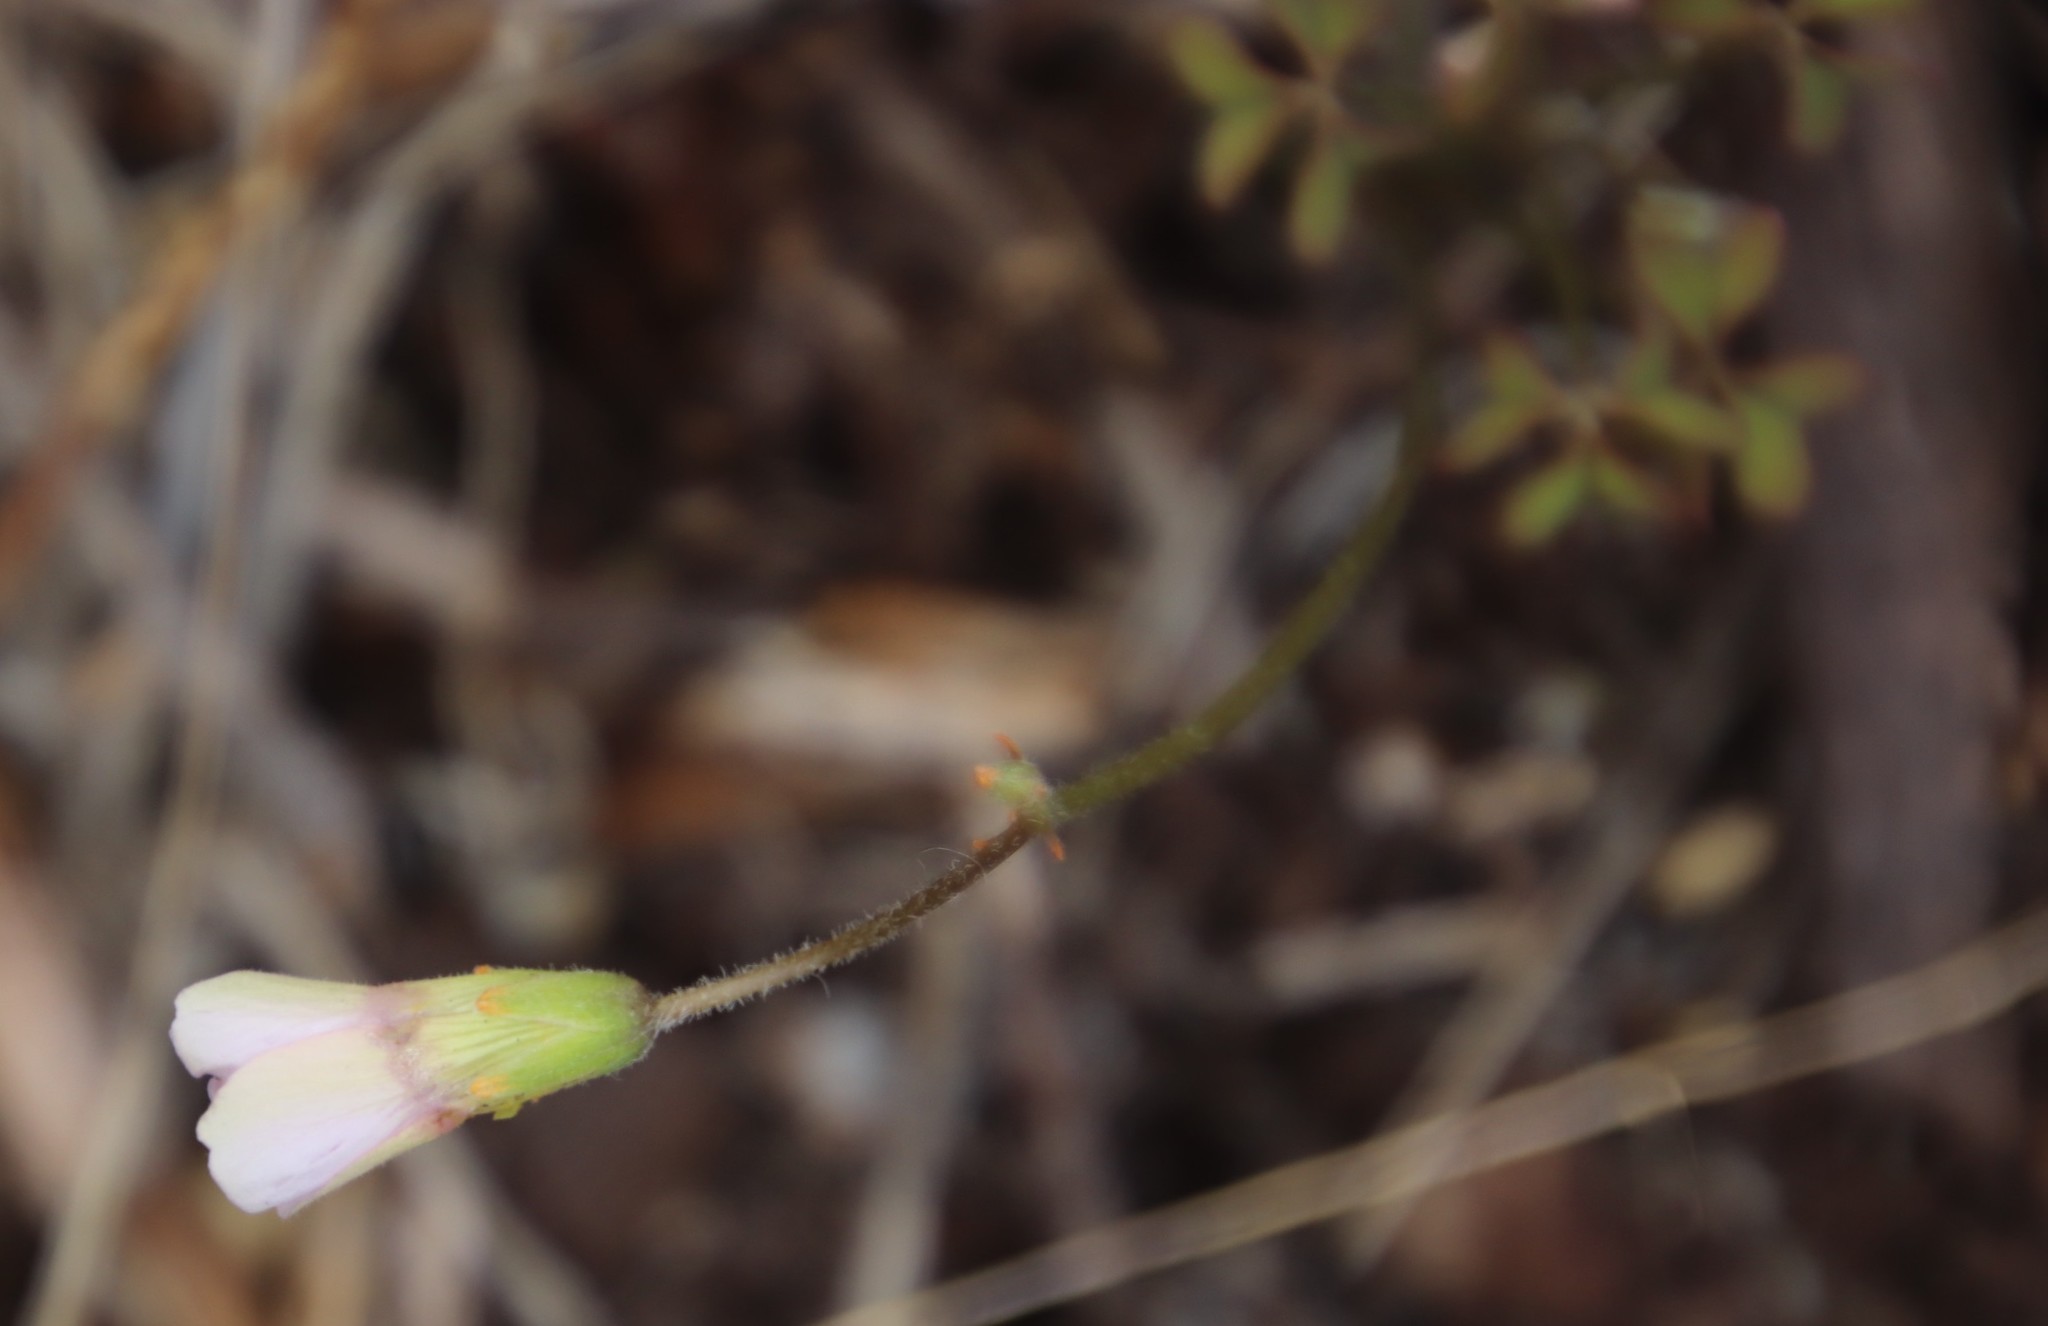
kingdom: Plantae
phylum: Tracheophyta
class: Magnoliopsida
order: Oxalidales
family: Oxalidaceae
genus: Oxalis
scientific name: Oxalis
